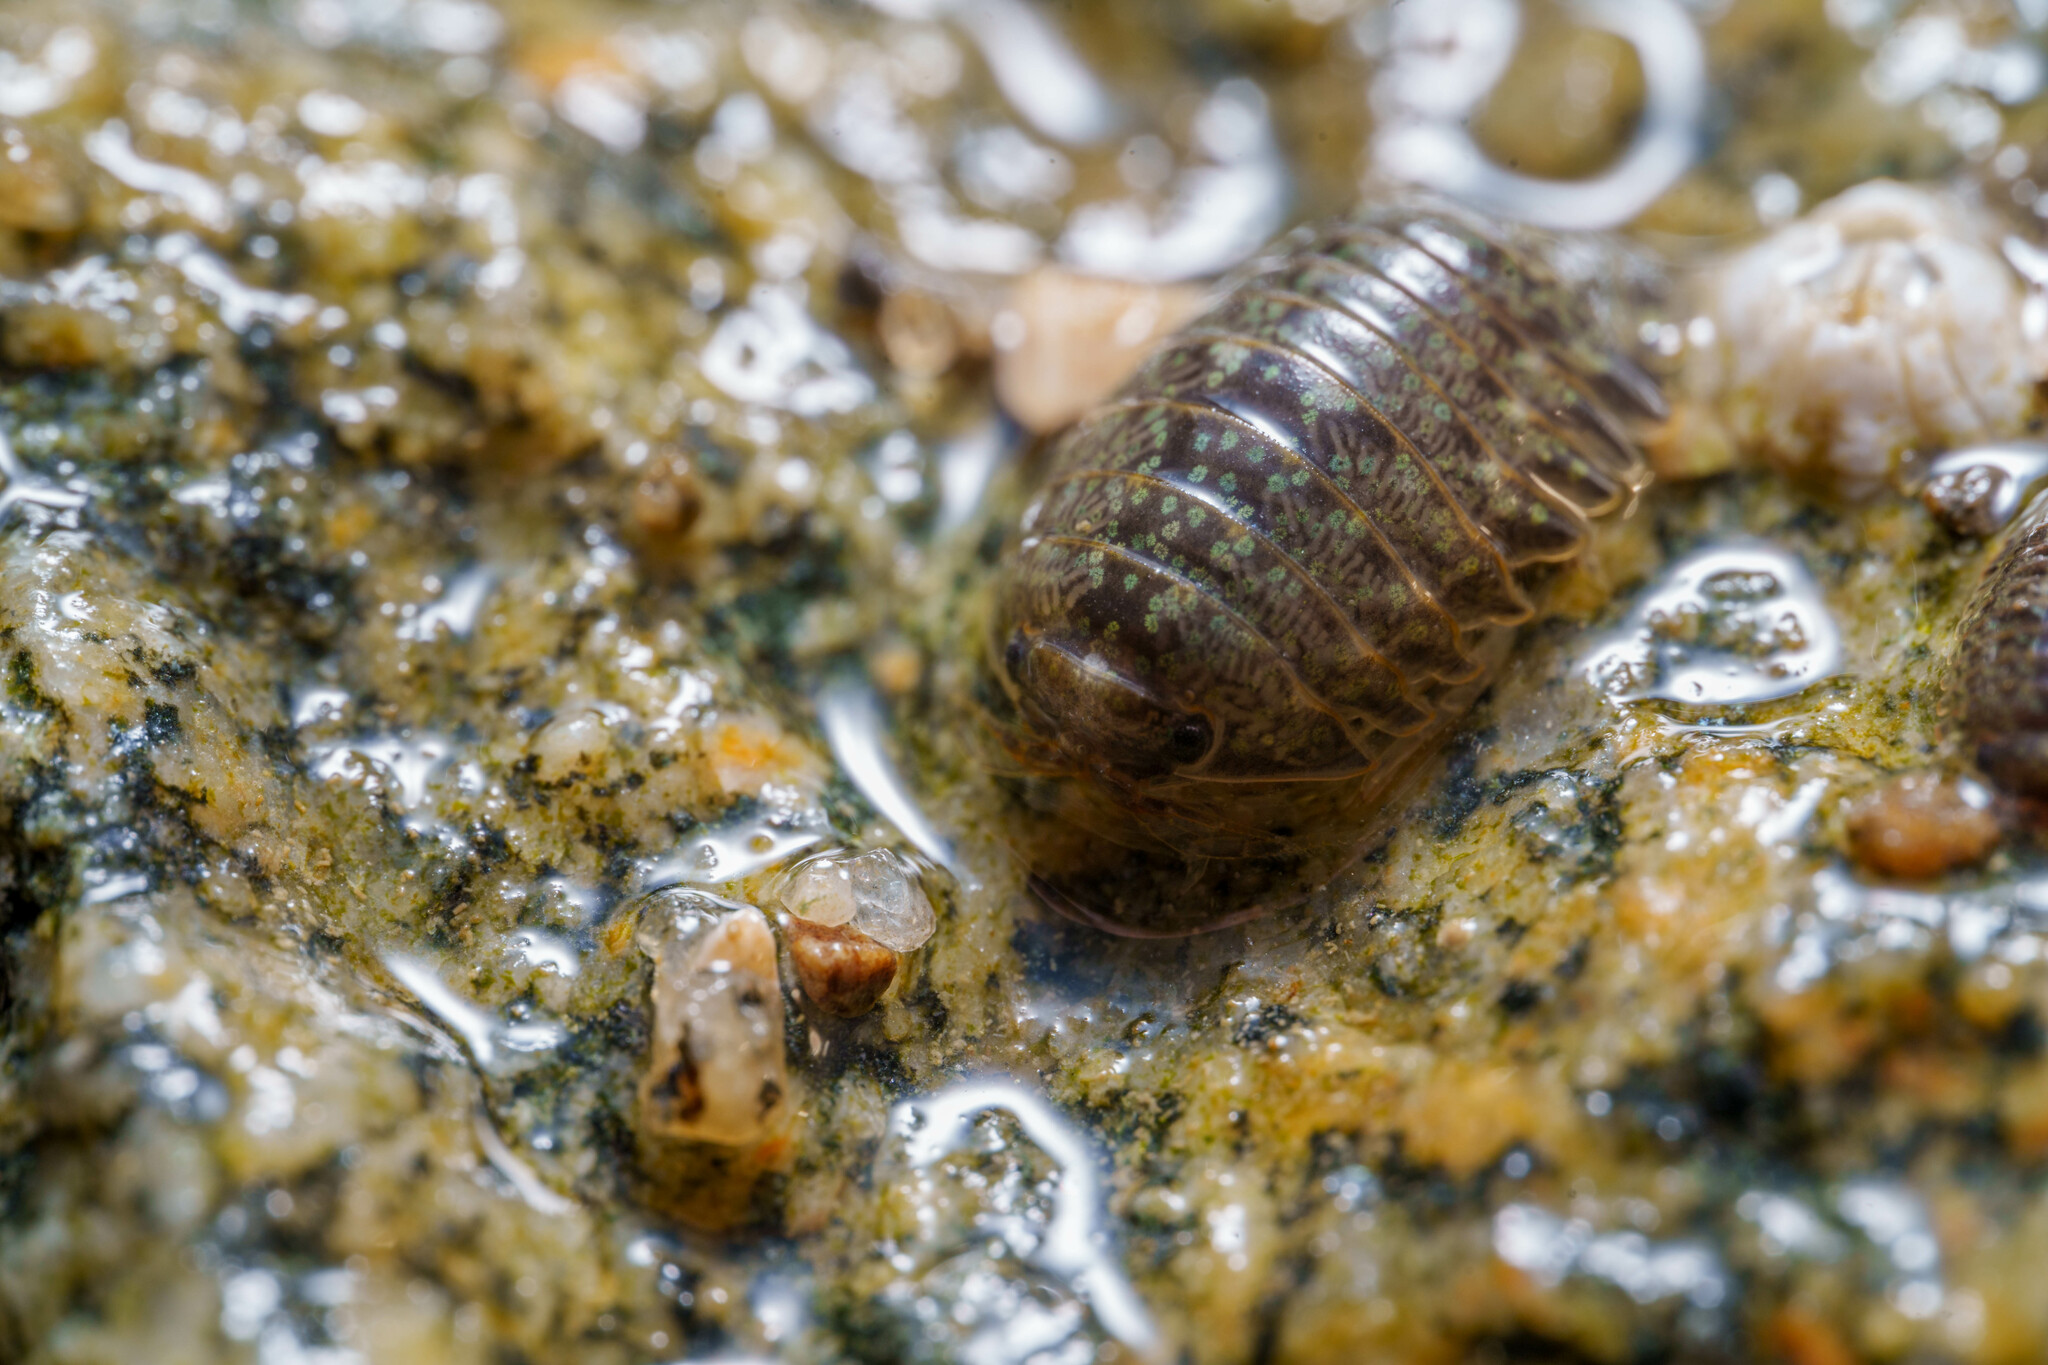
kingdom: Animalia
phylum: Arthropoda
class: Malacostraca
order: Isopoda
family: Sphaeromatidae
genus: Gnorimosphaeroma
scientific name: Gnorimosphaeroma oregonense
